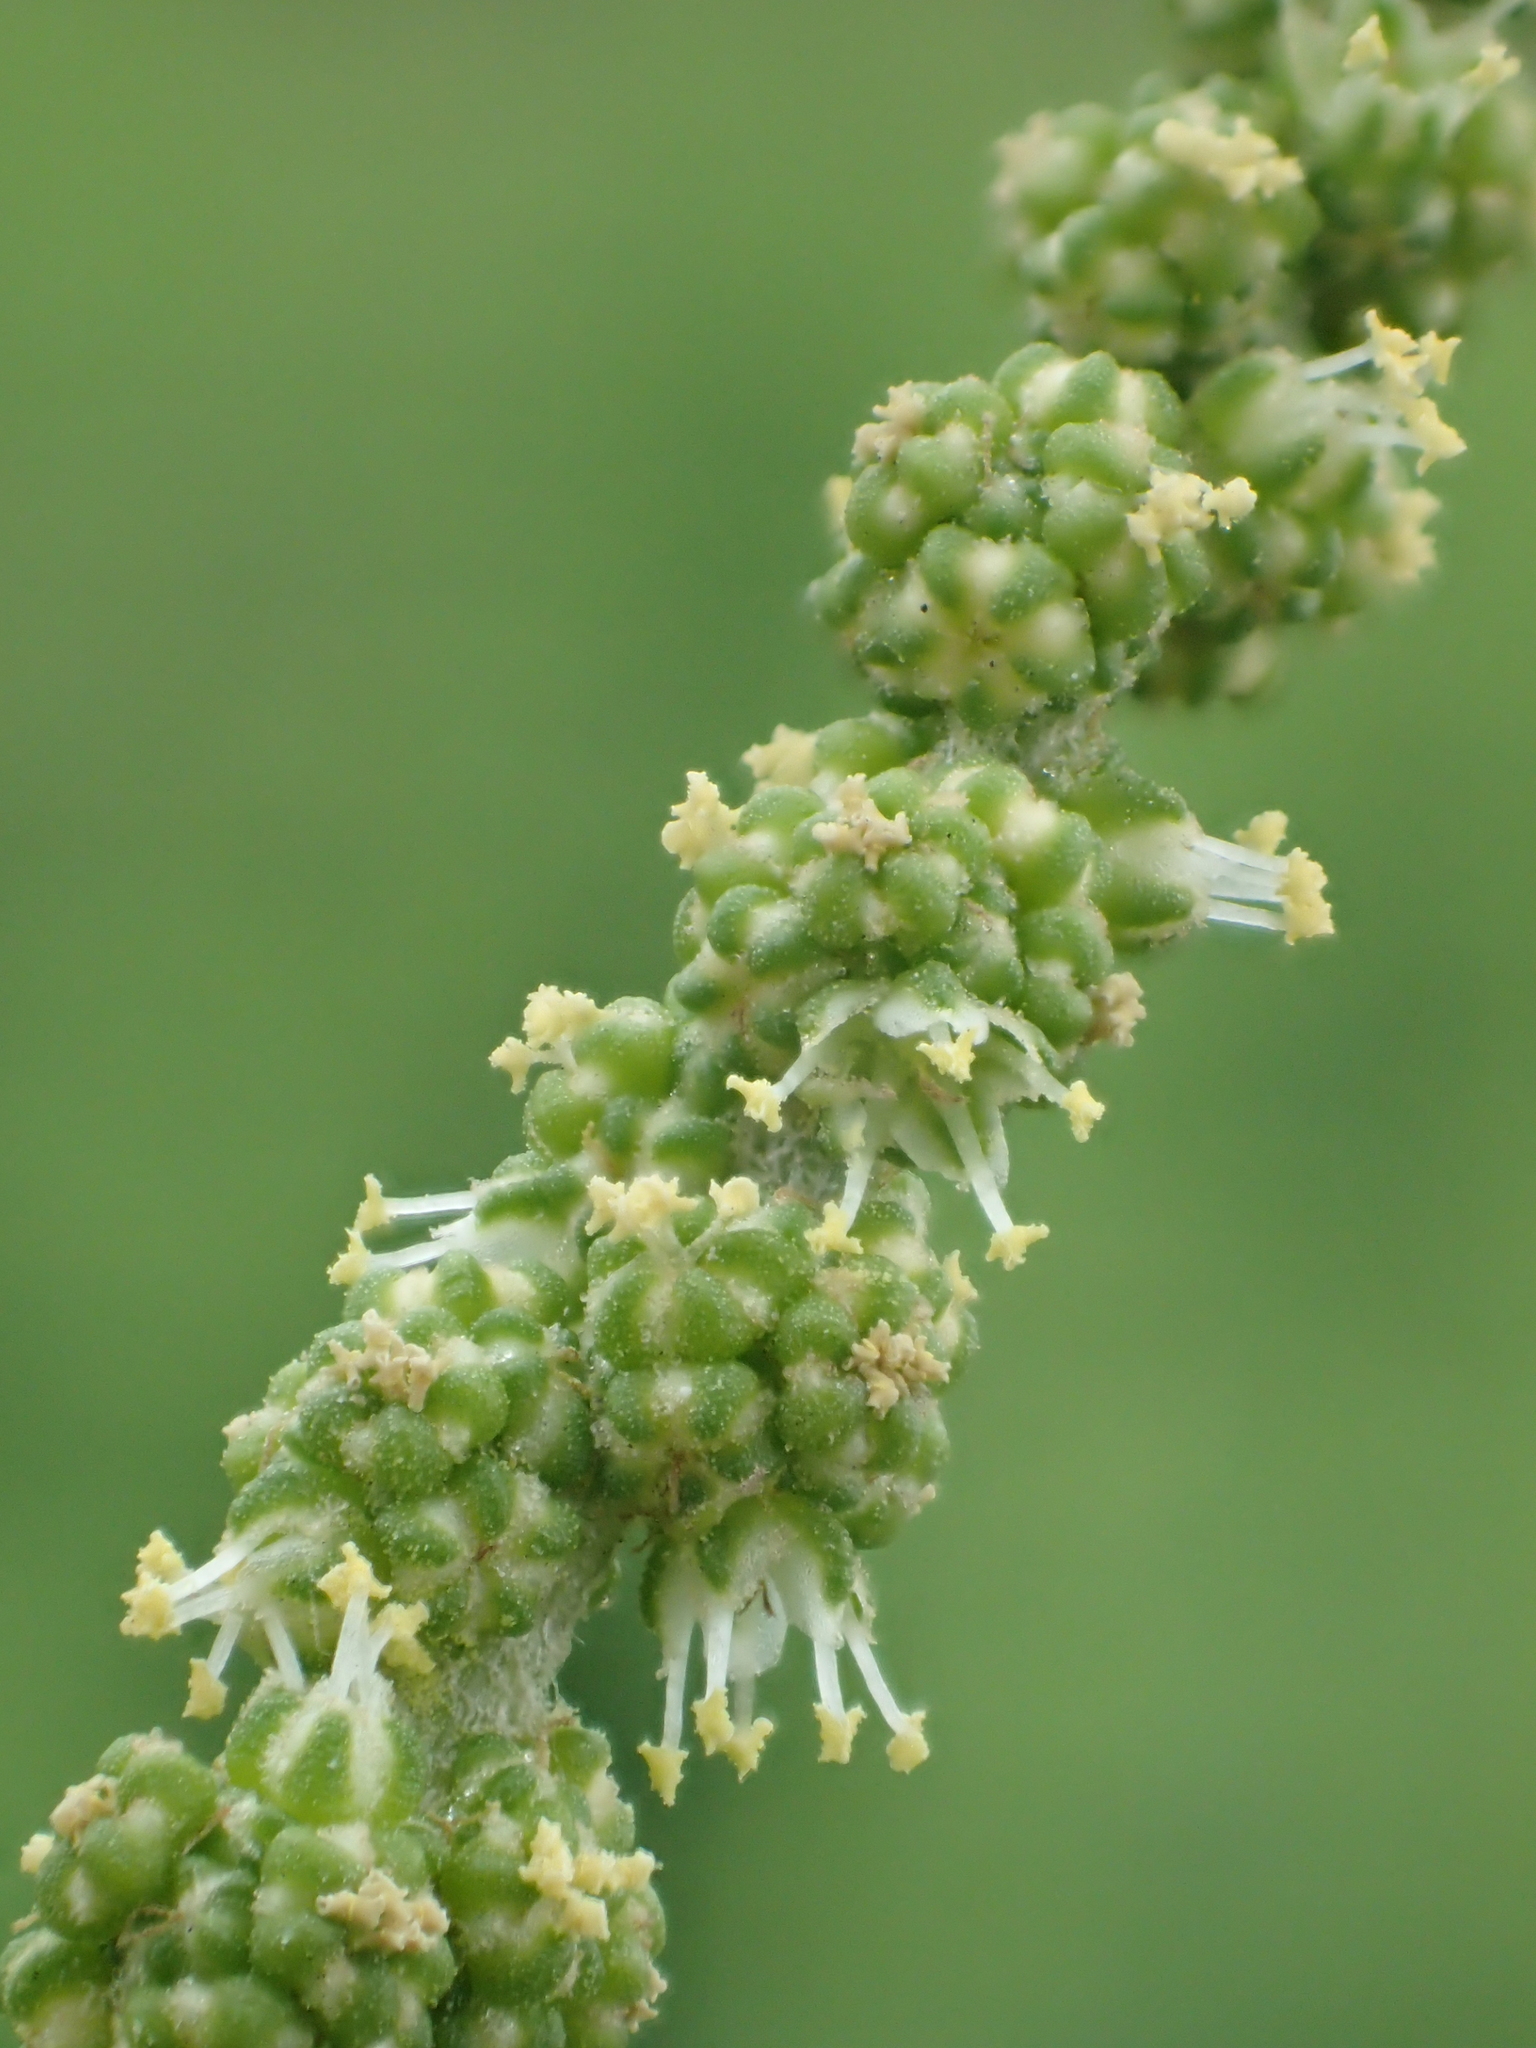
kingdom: Plantae
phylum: Tracheophyta
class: Magnoliopsida
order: Caryophyllales
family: Amaranthaceae
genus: Chenopodium
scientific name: Chenopodium acuminatum
